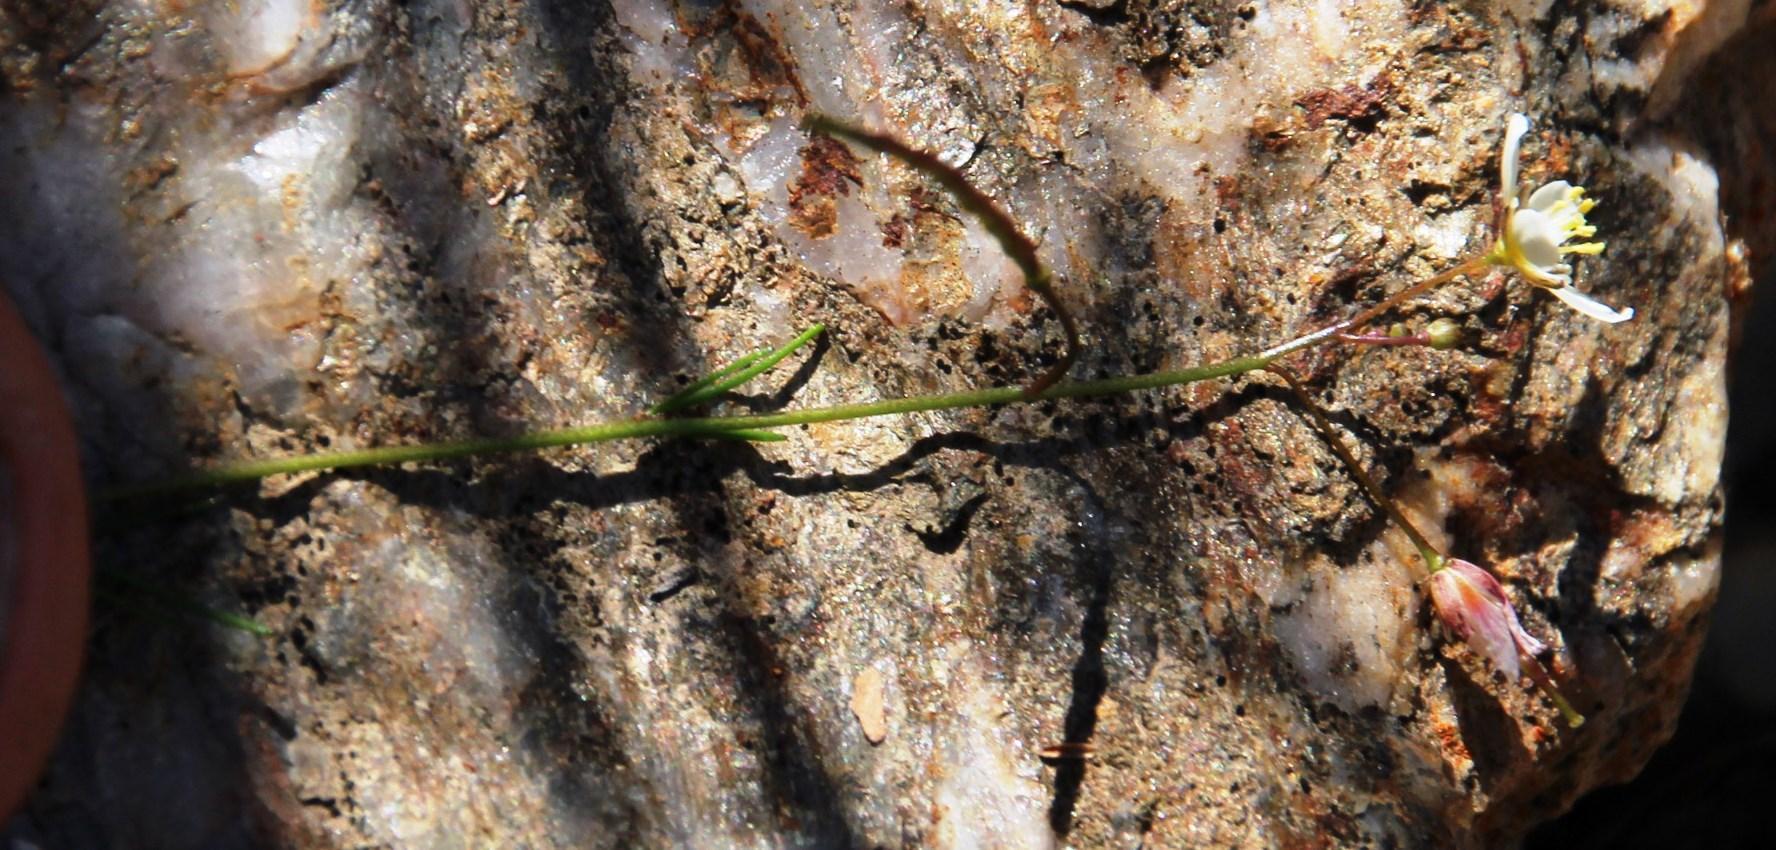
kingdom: Plantae
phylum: Tracheophyta
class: Magnoliopsida
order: Brassicales
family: Brassicaceae
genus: Heliophila
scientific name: Heliophila pendula
